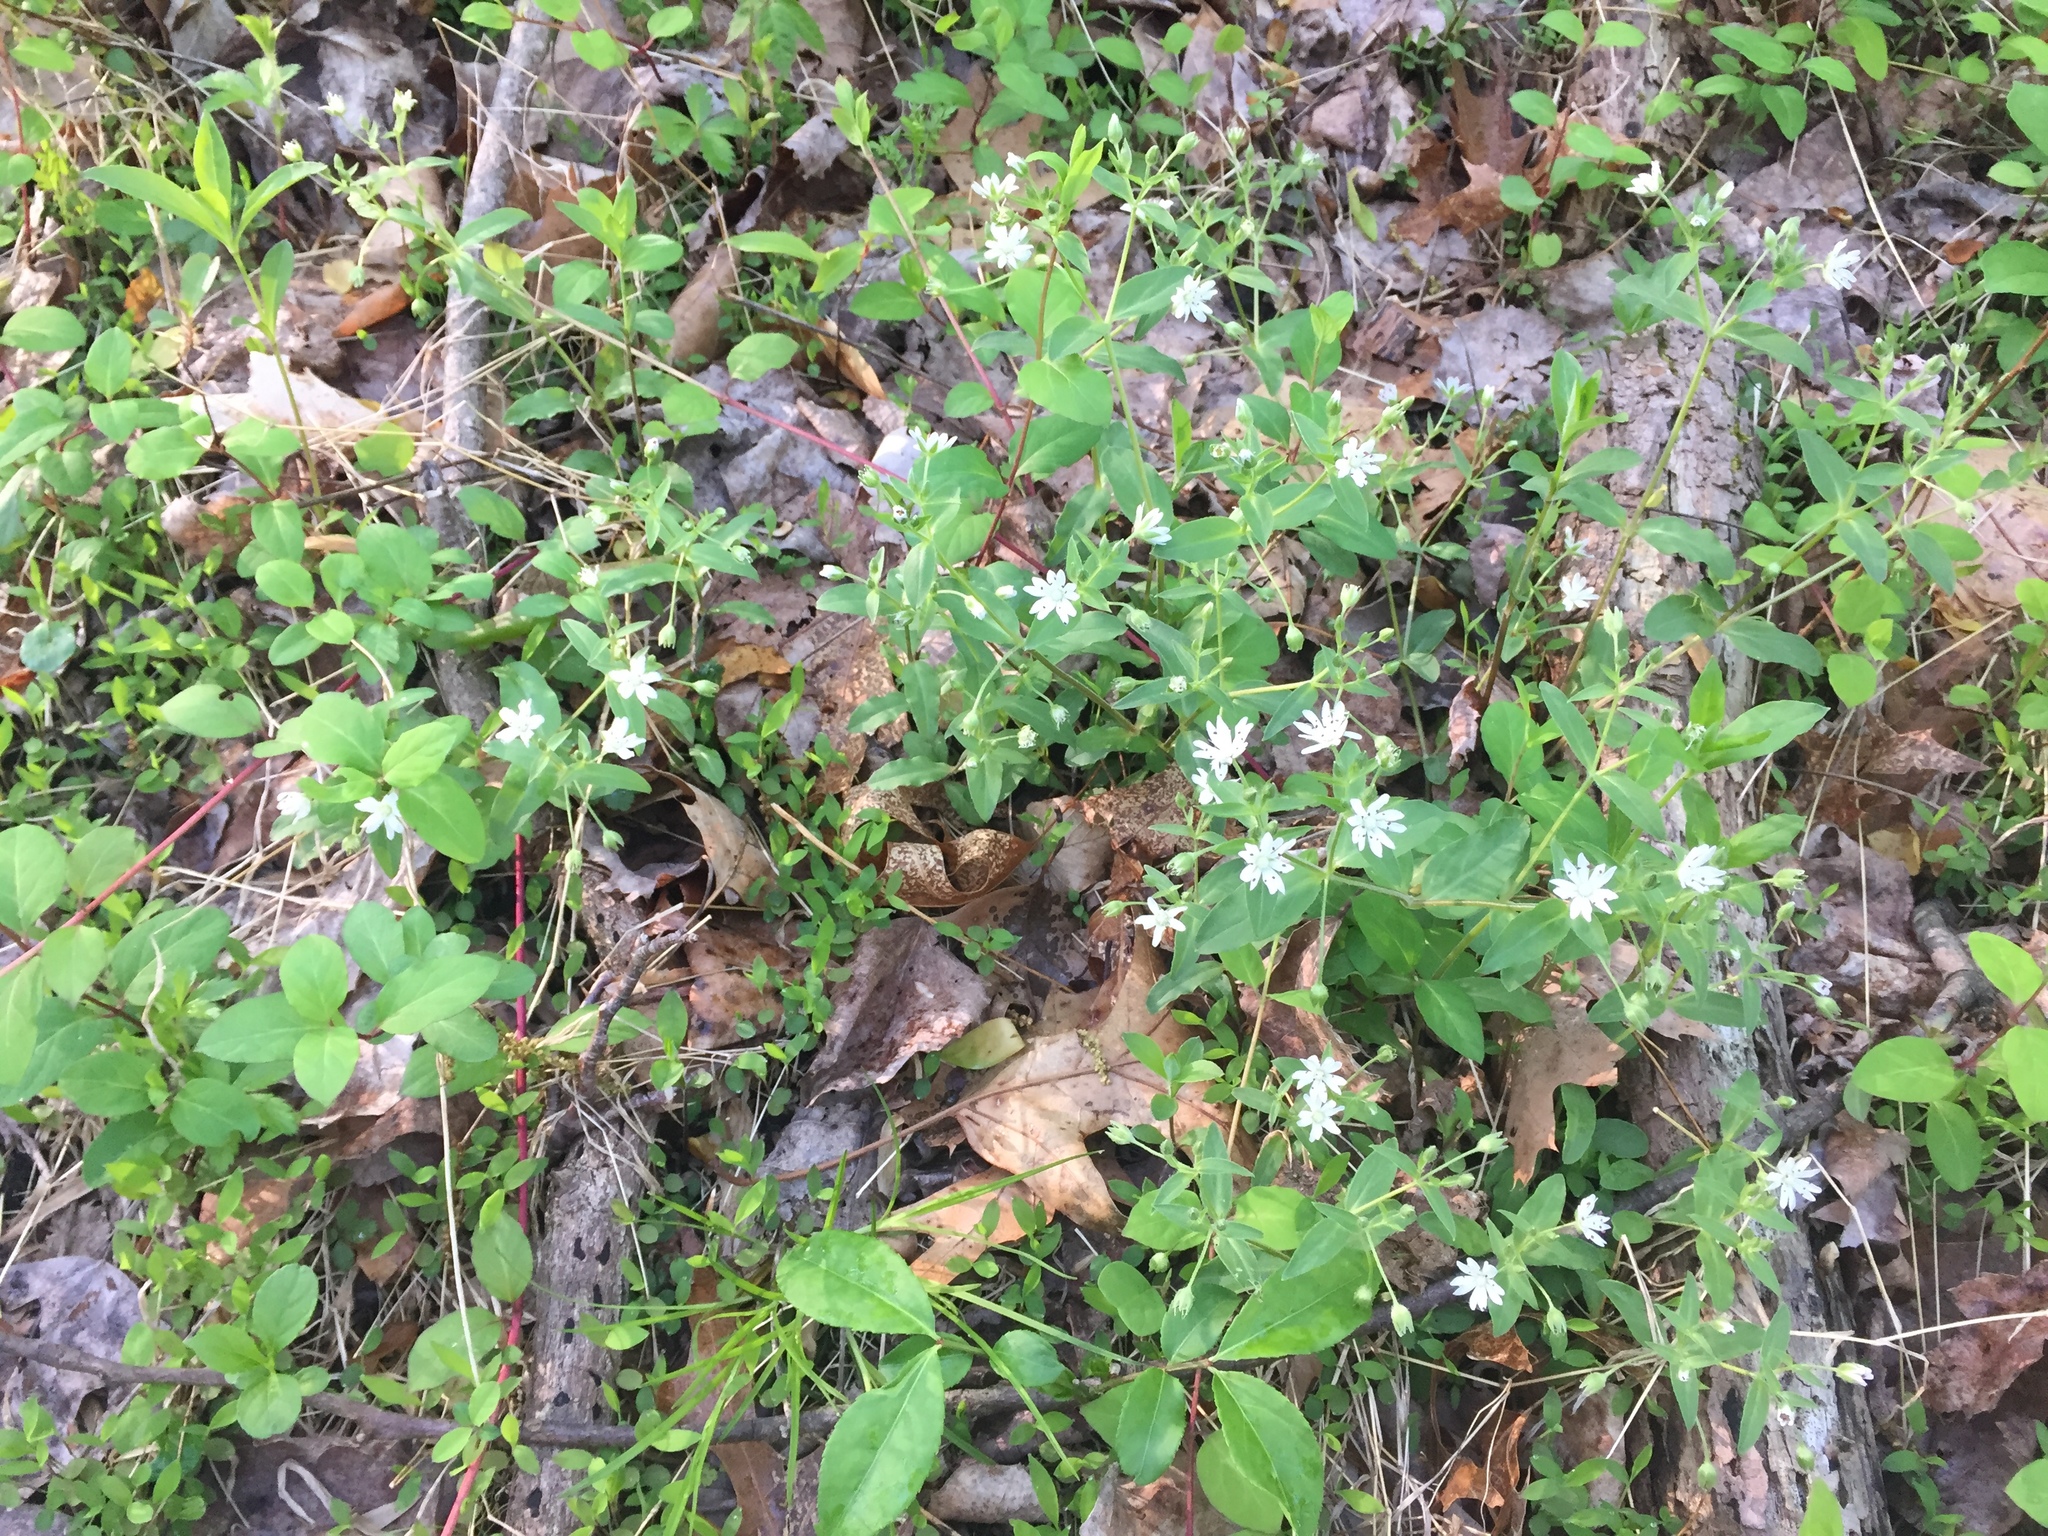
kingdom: Plantae
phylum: Tracheophyta
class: Magnoliopsida
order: Caryophyllales
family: Caryophyllaceae
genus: Stellaria
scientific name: Stellaria pubera
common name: Star chickweed
